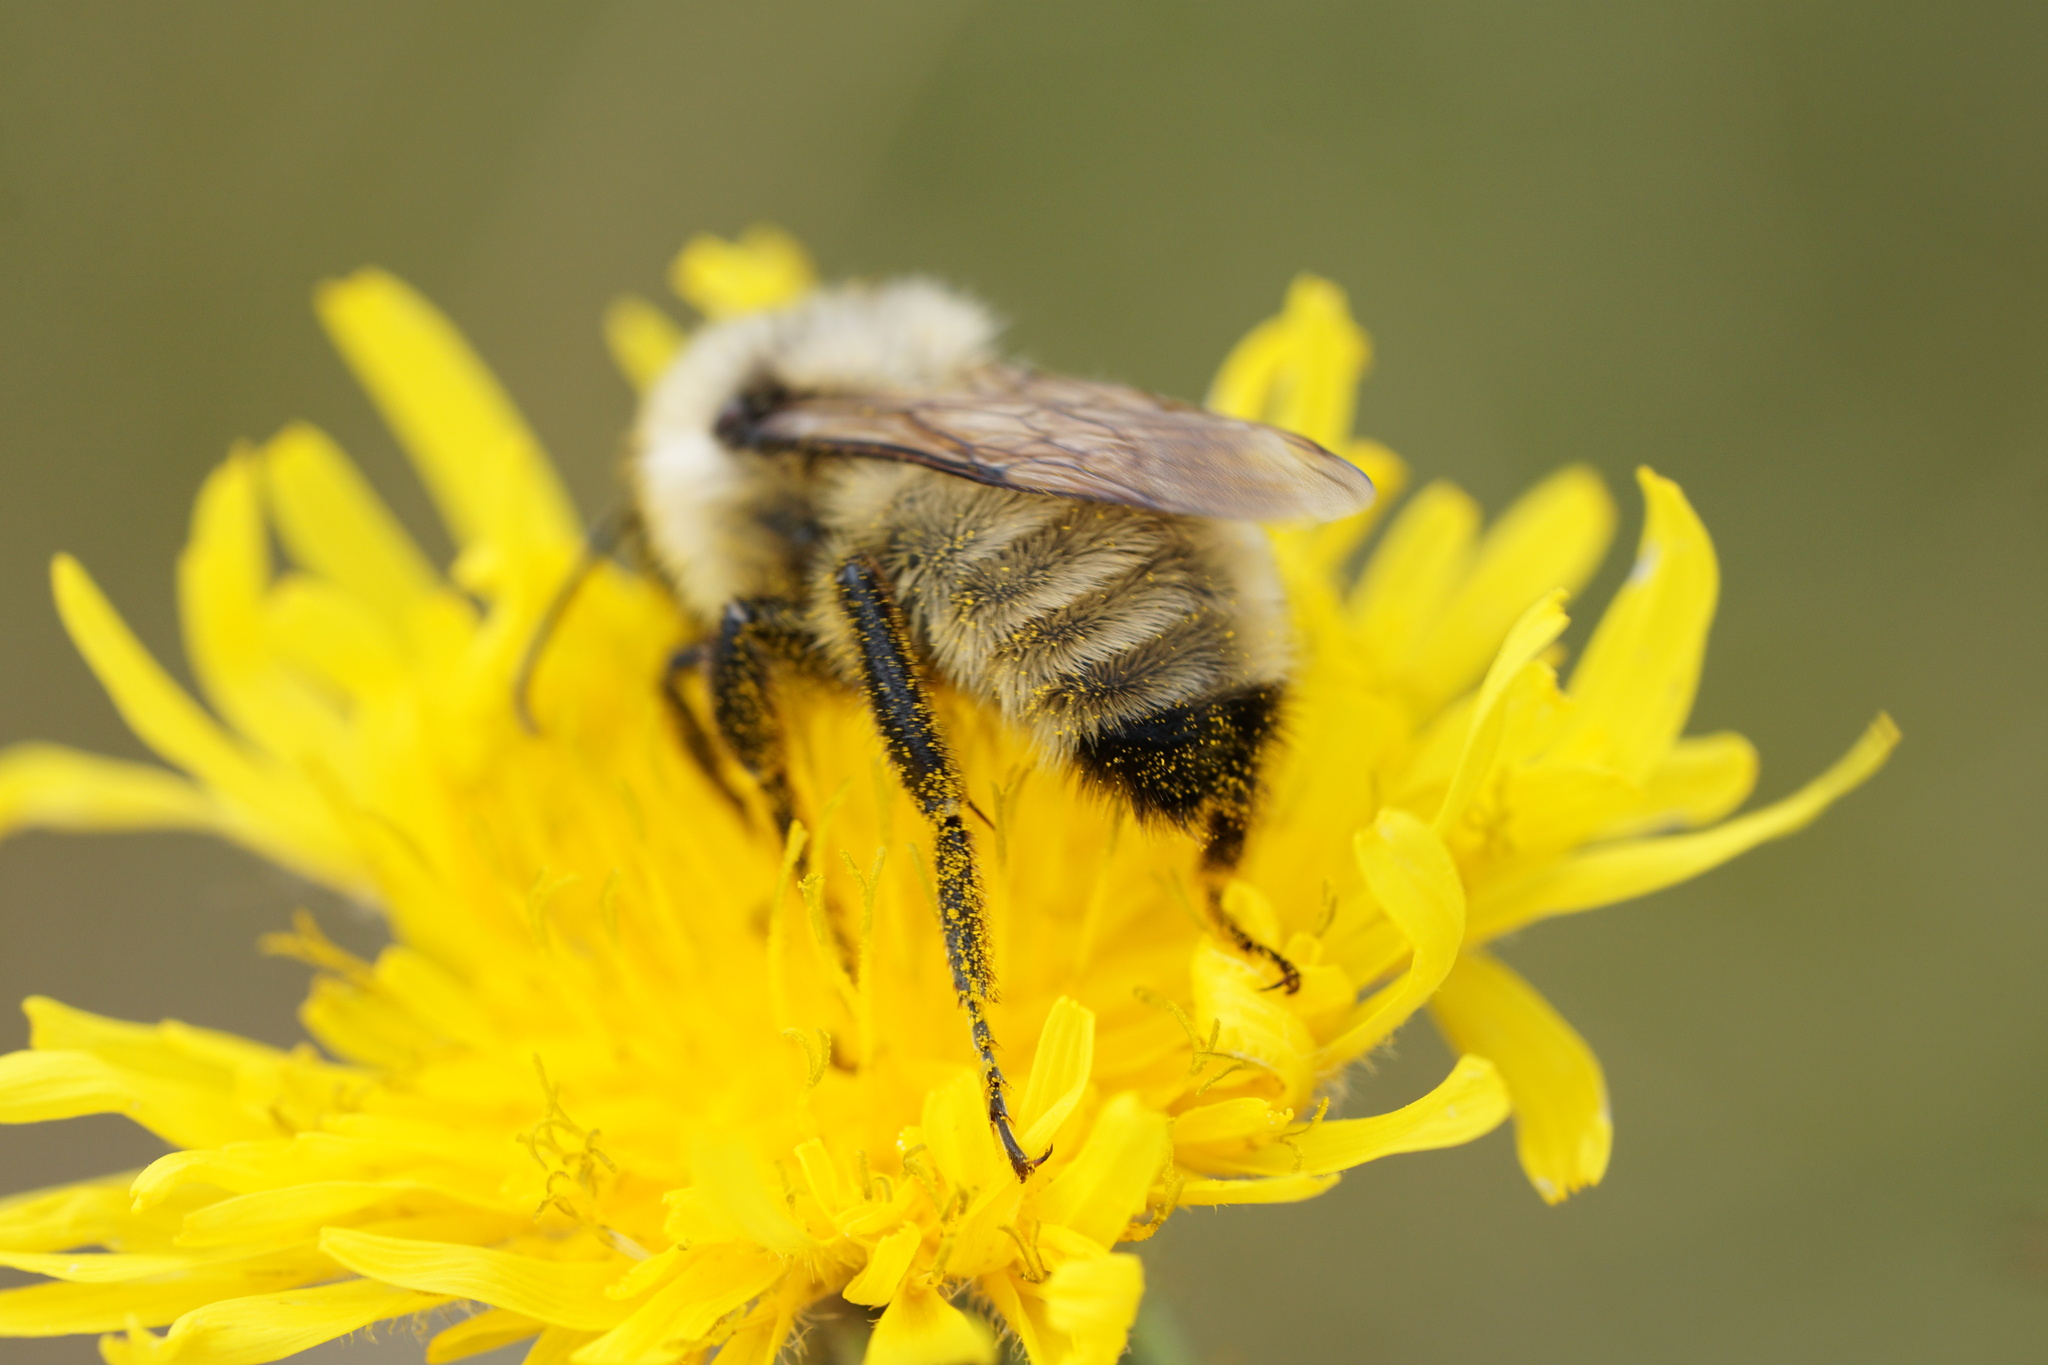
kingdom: Animalia
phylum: Arthropoda
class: Insecta
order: Hymenoptera
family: Apidae
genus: Bombus
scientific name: Bombus fervidus
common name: Yellow bumble bee
